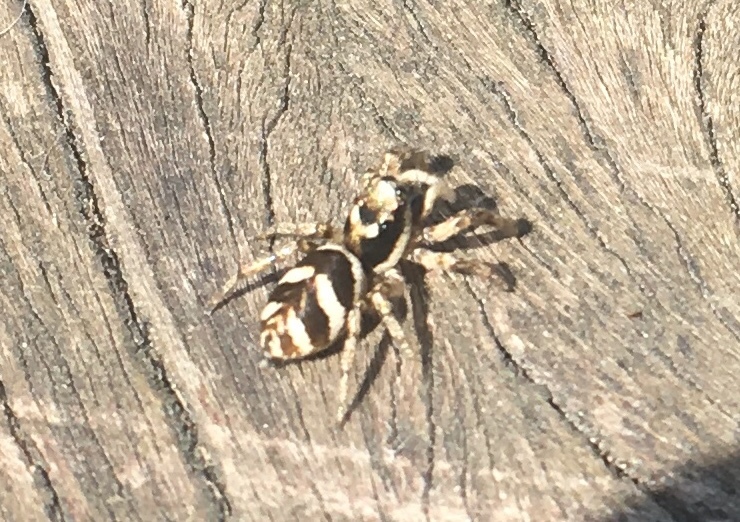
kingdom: Animalia
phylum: Arthropoda
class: Arachnida
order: Araneae
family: Salticidae
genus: Salticus
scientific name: Salticus scenicus
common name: Zebra jumper
